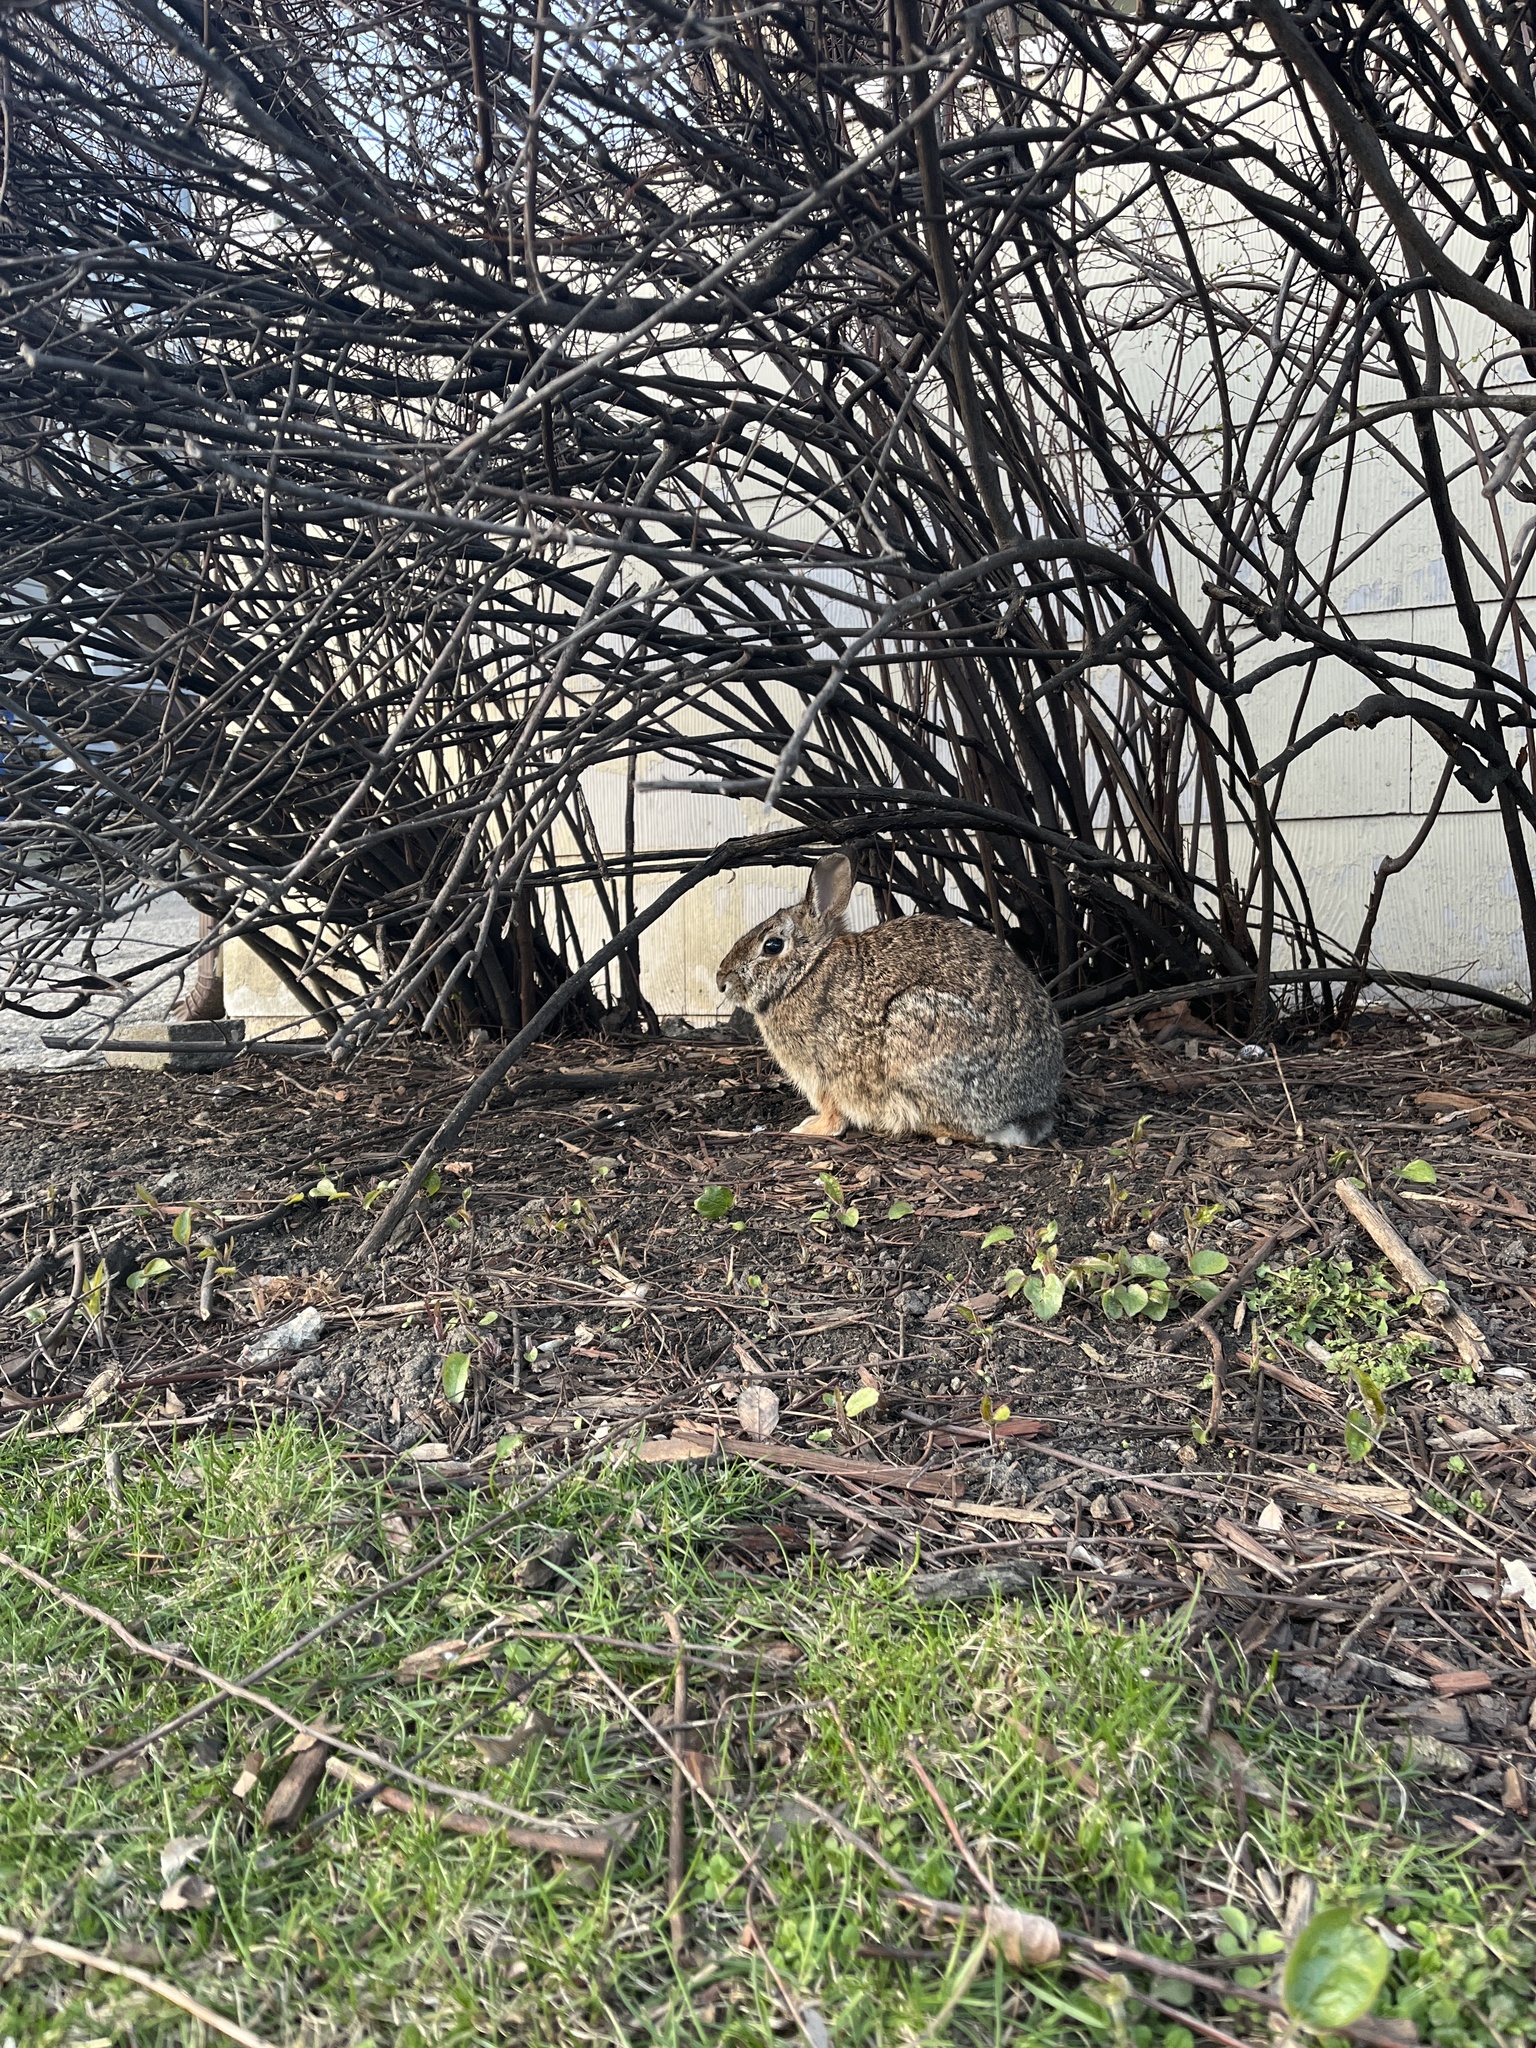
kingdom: Animalia
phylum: Chordata
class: Mammalia
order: Lagomorpha
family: Leporidae
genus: Sylvilagus
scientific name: Sylvilagus floridanus
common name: Eastern cottontail
